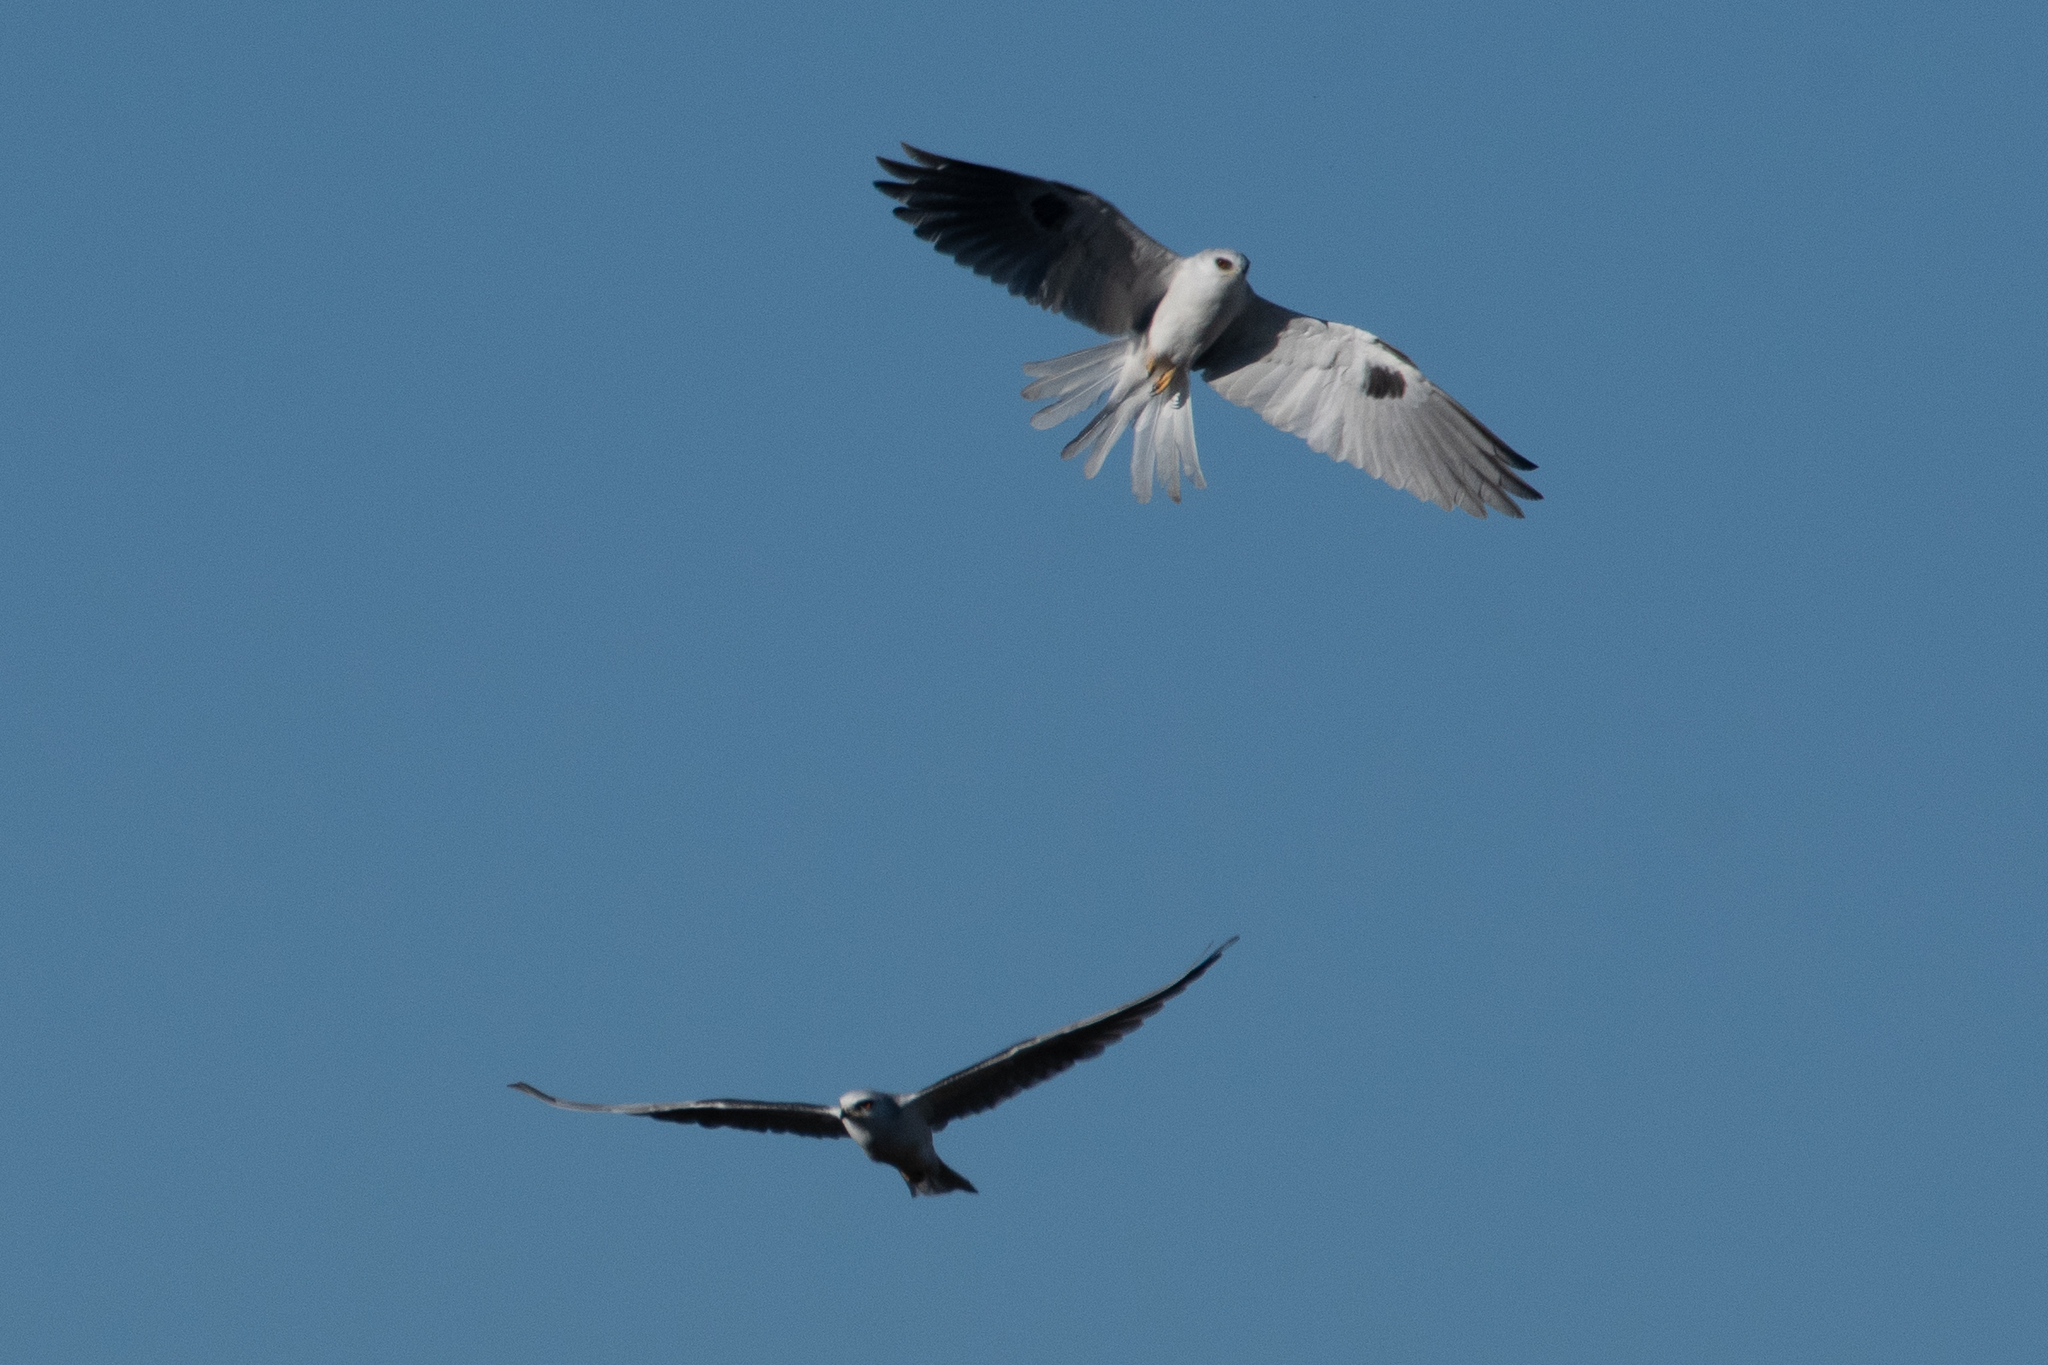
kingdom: Animalia
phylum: Chordata
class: Aves
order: Accipitriformes
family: Accipitridae
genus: Elanus
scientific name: Elanus leucurus
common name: White-tailed kite
